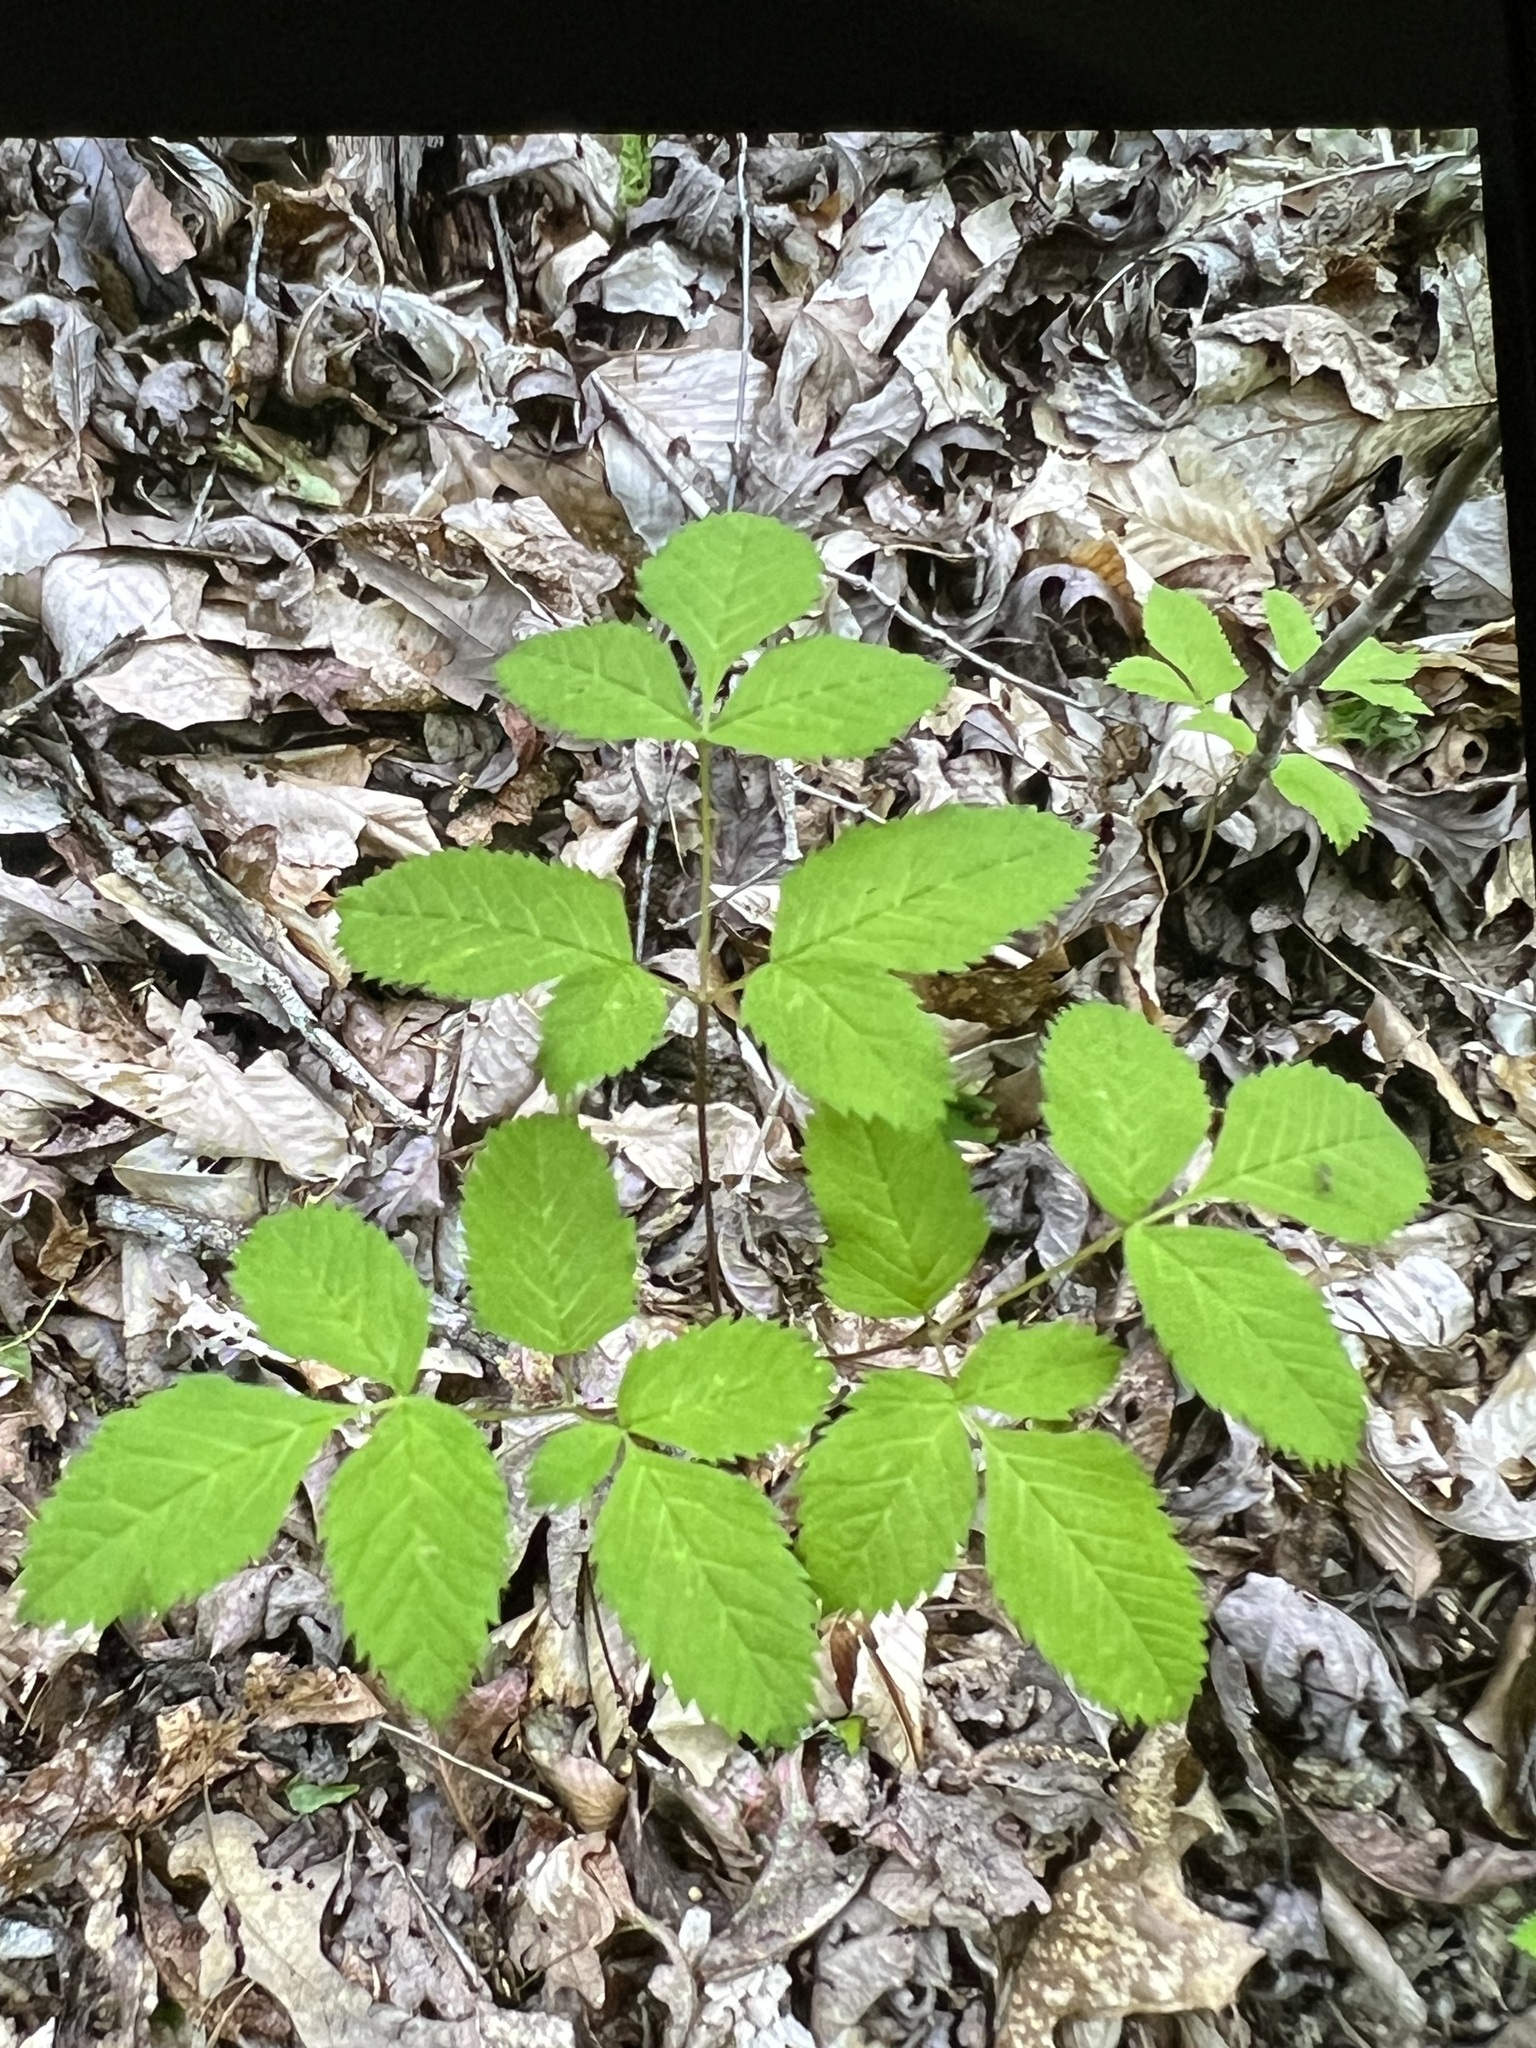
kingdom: Plantae
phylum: Tracheophyta
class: Magnoliopsida
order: Apiales
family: Apiaceae
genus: Ligusticum
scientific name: Ligusticum canadense
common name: American lovage
